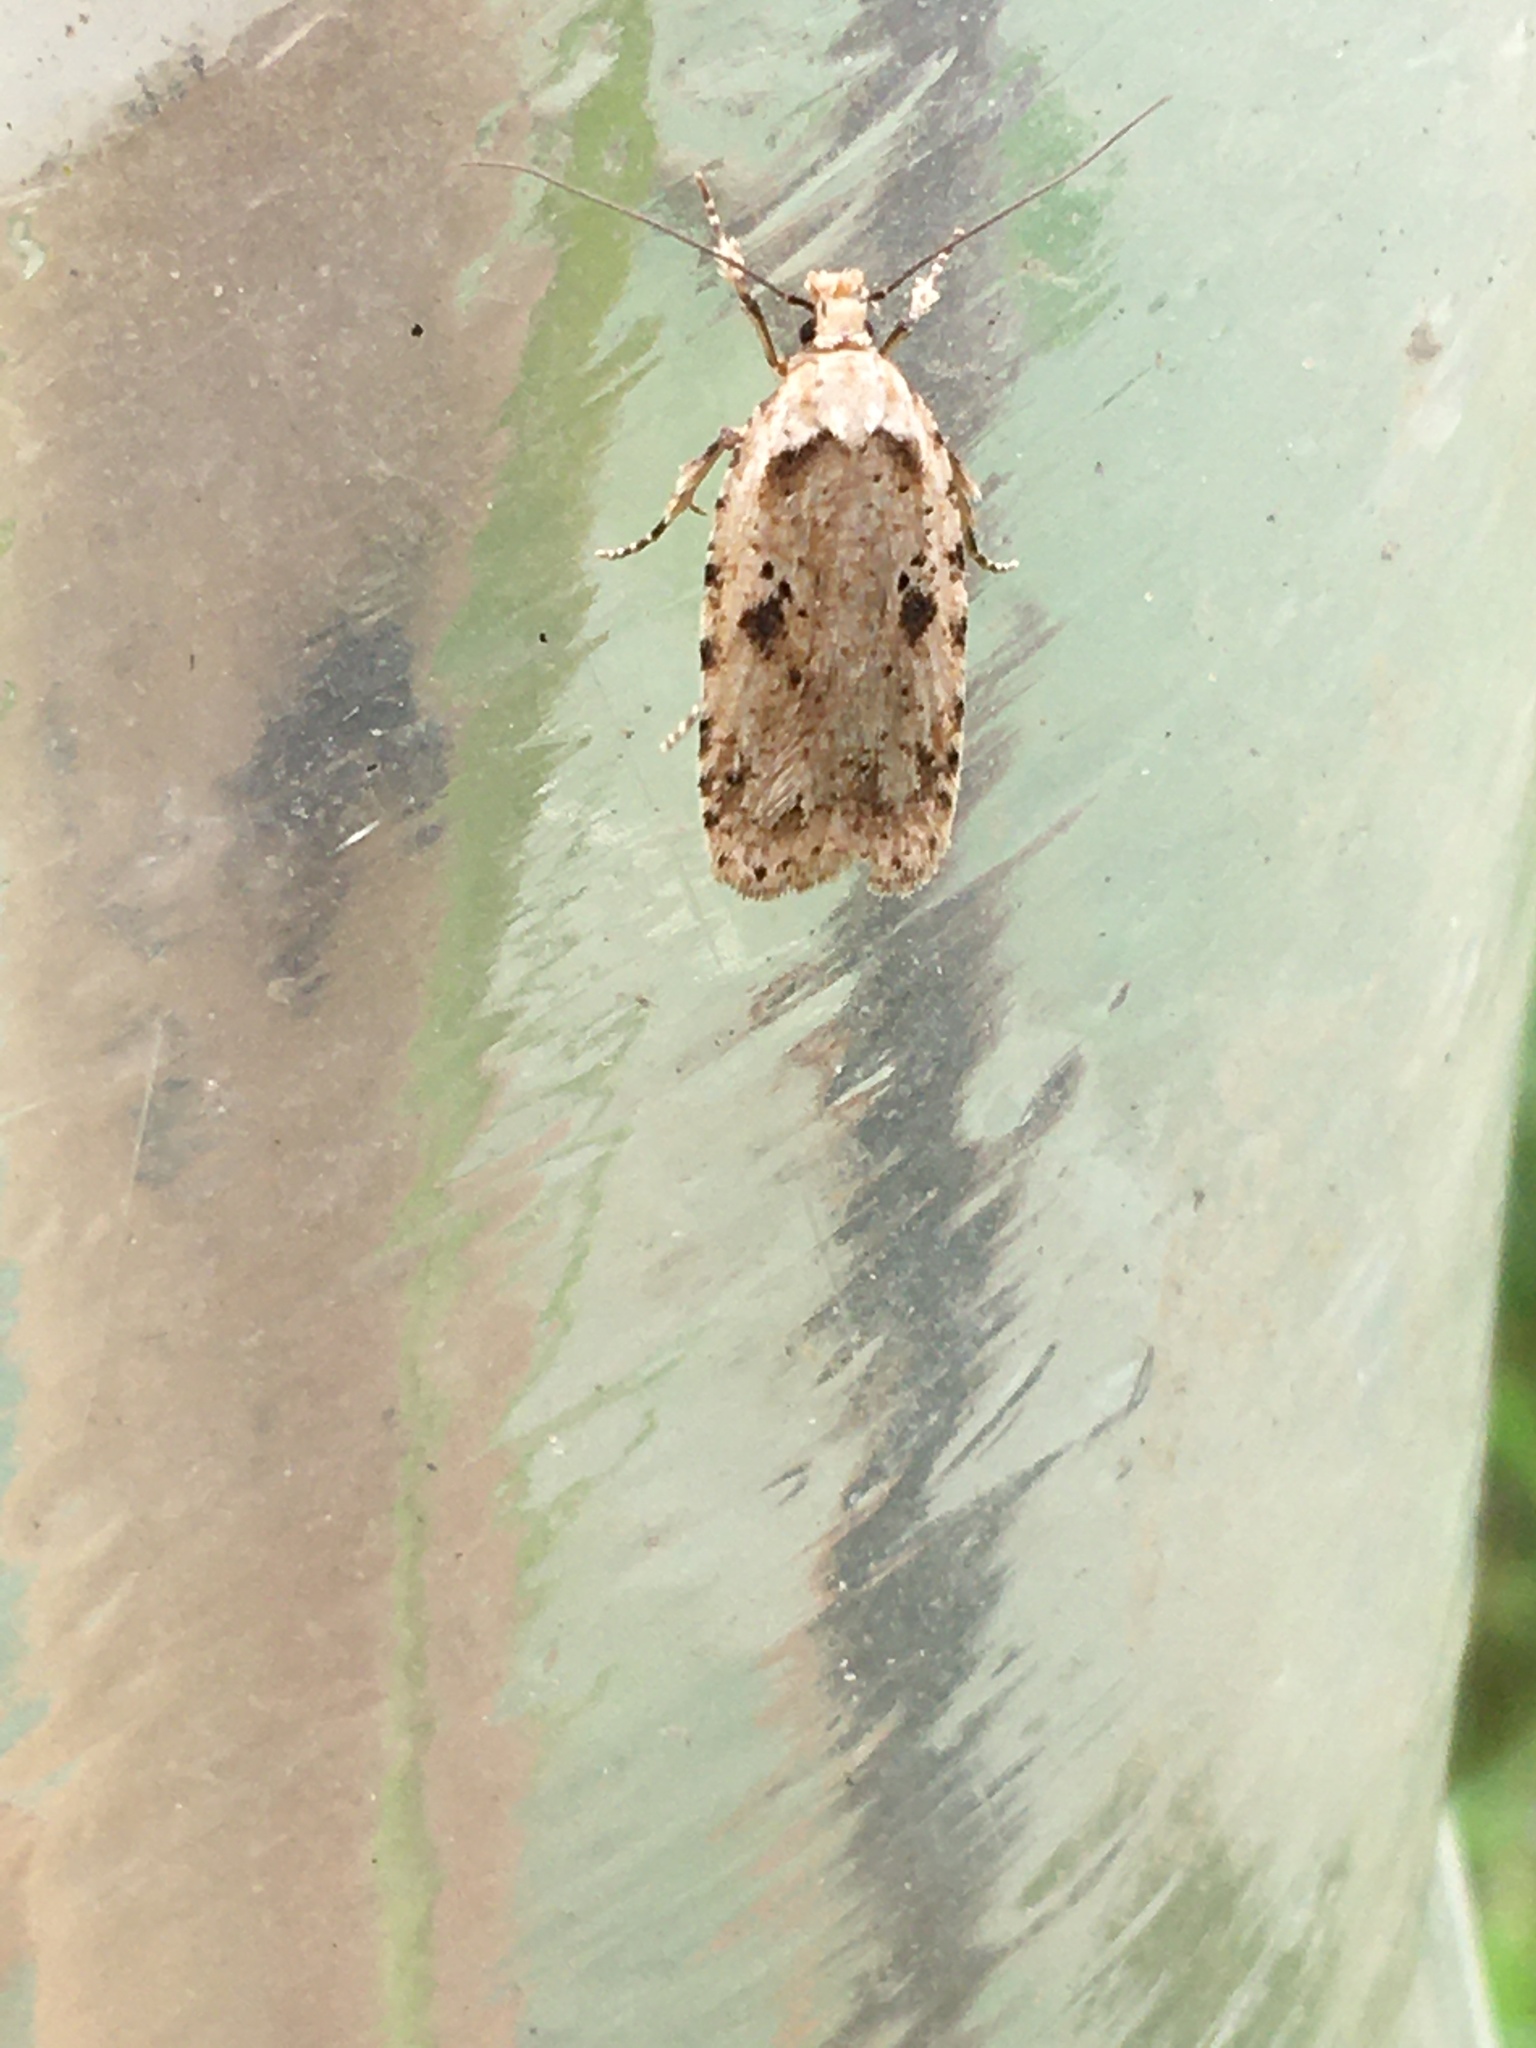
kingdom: Animalia
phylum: Arthropoda
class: Insecta
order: Lepidoptera
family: Depressariidae
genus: Agonopterix
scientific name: Agonopterix arenella
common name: Brindled flat-body
